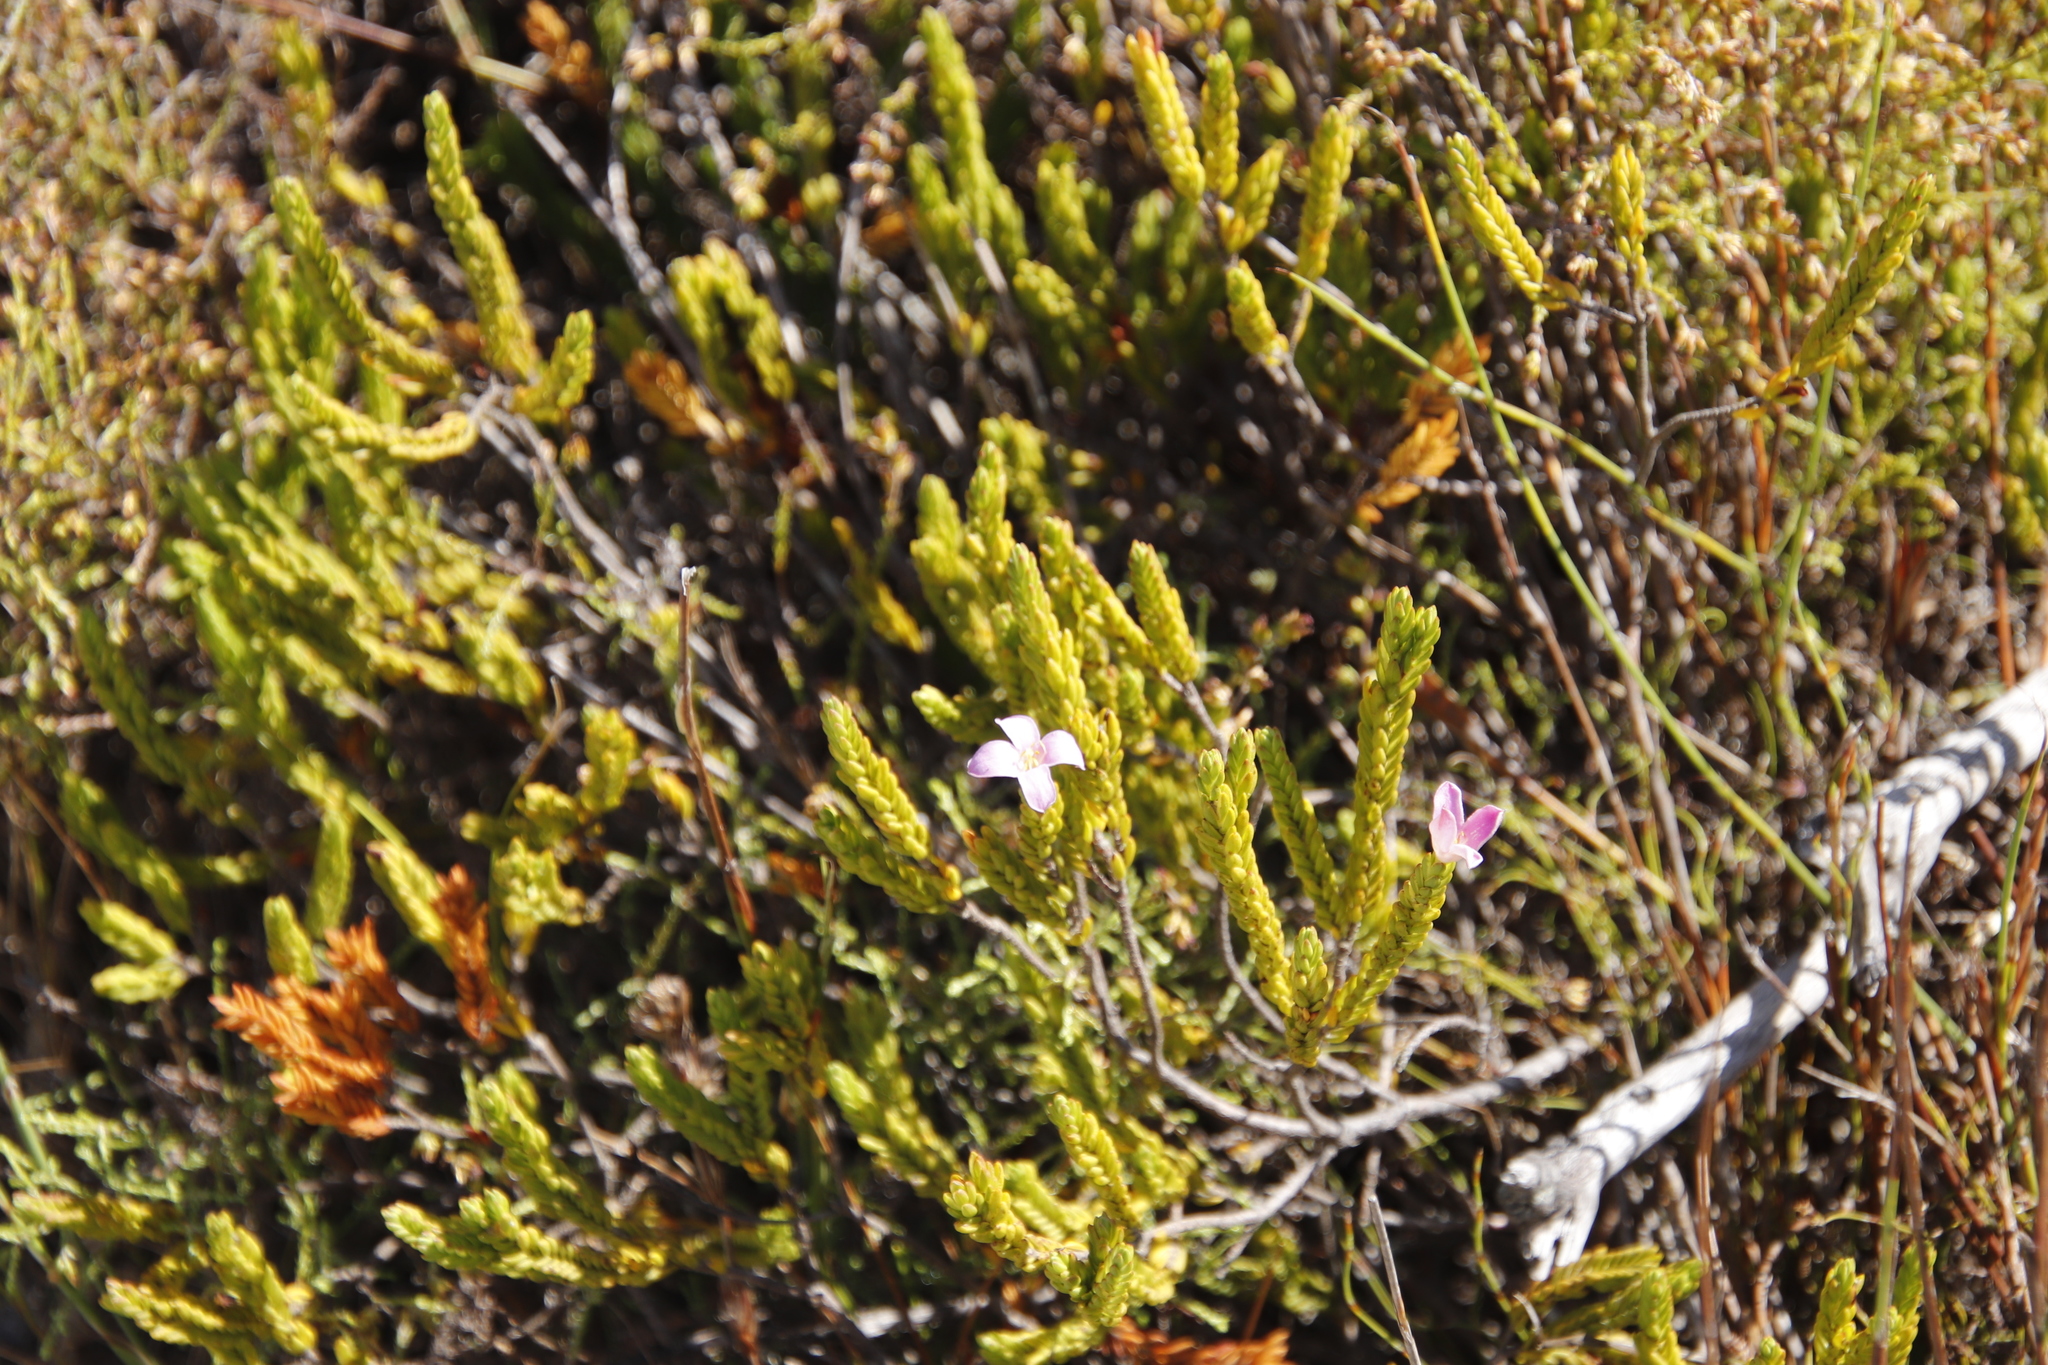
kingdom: Plantae
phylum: Tracheophyta
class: Magnoliopsida
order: Malvales
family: Thymelaeaceae
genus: Lachnaea
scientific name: Lachnaea grandiflora
